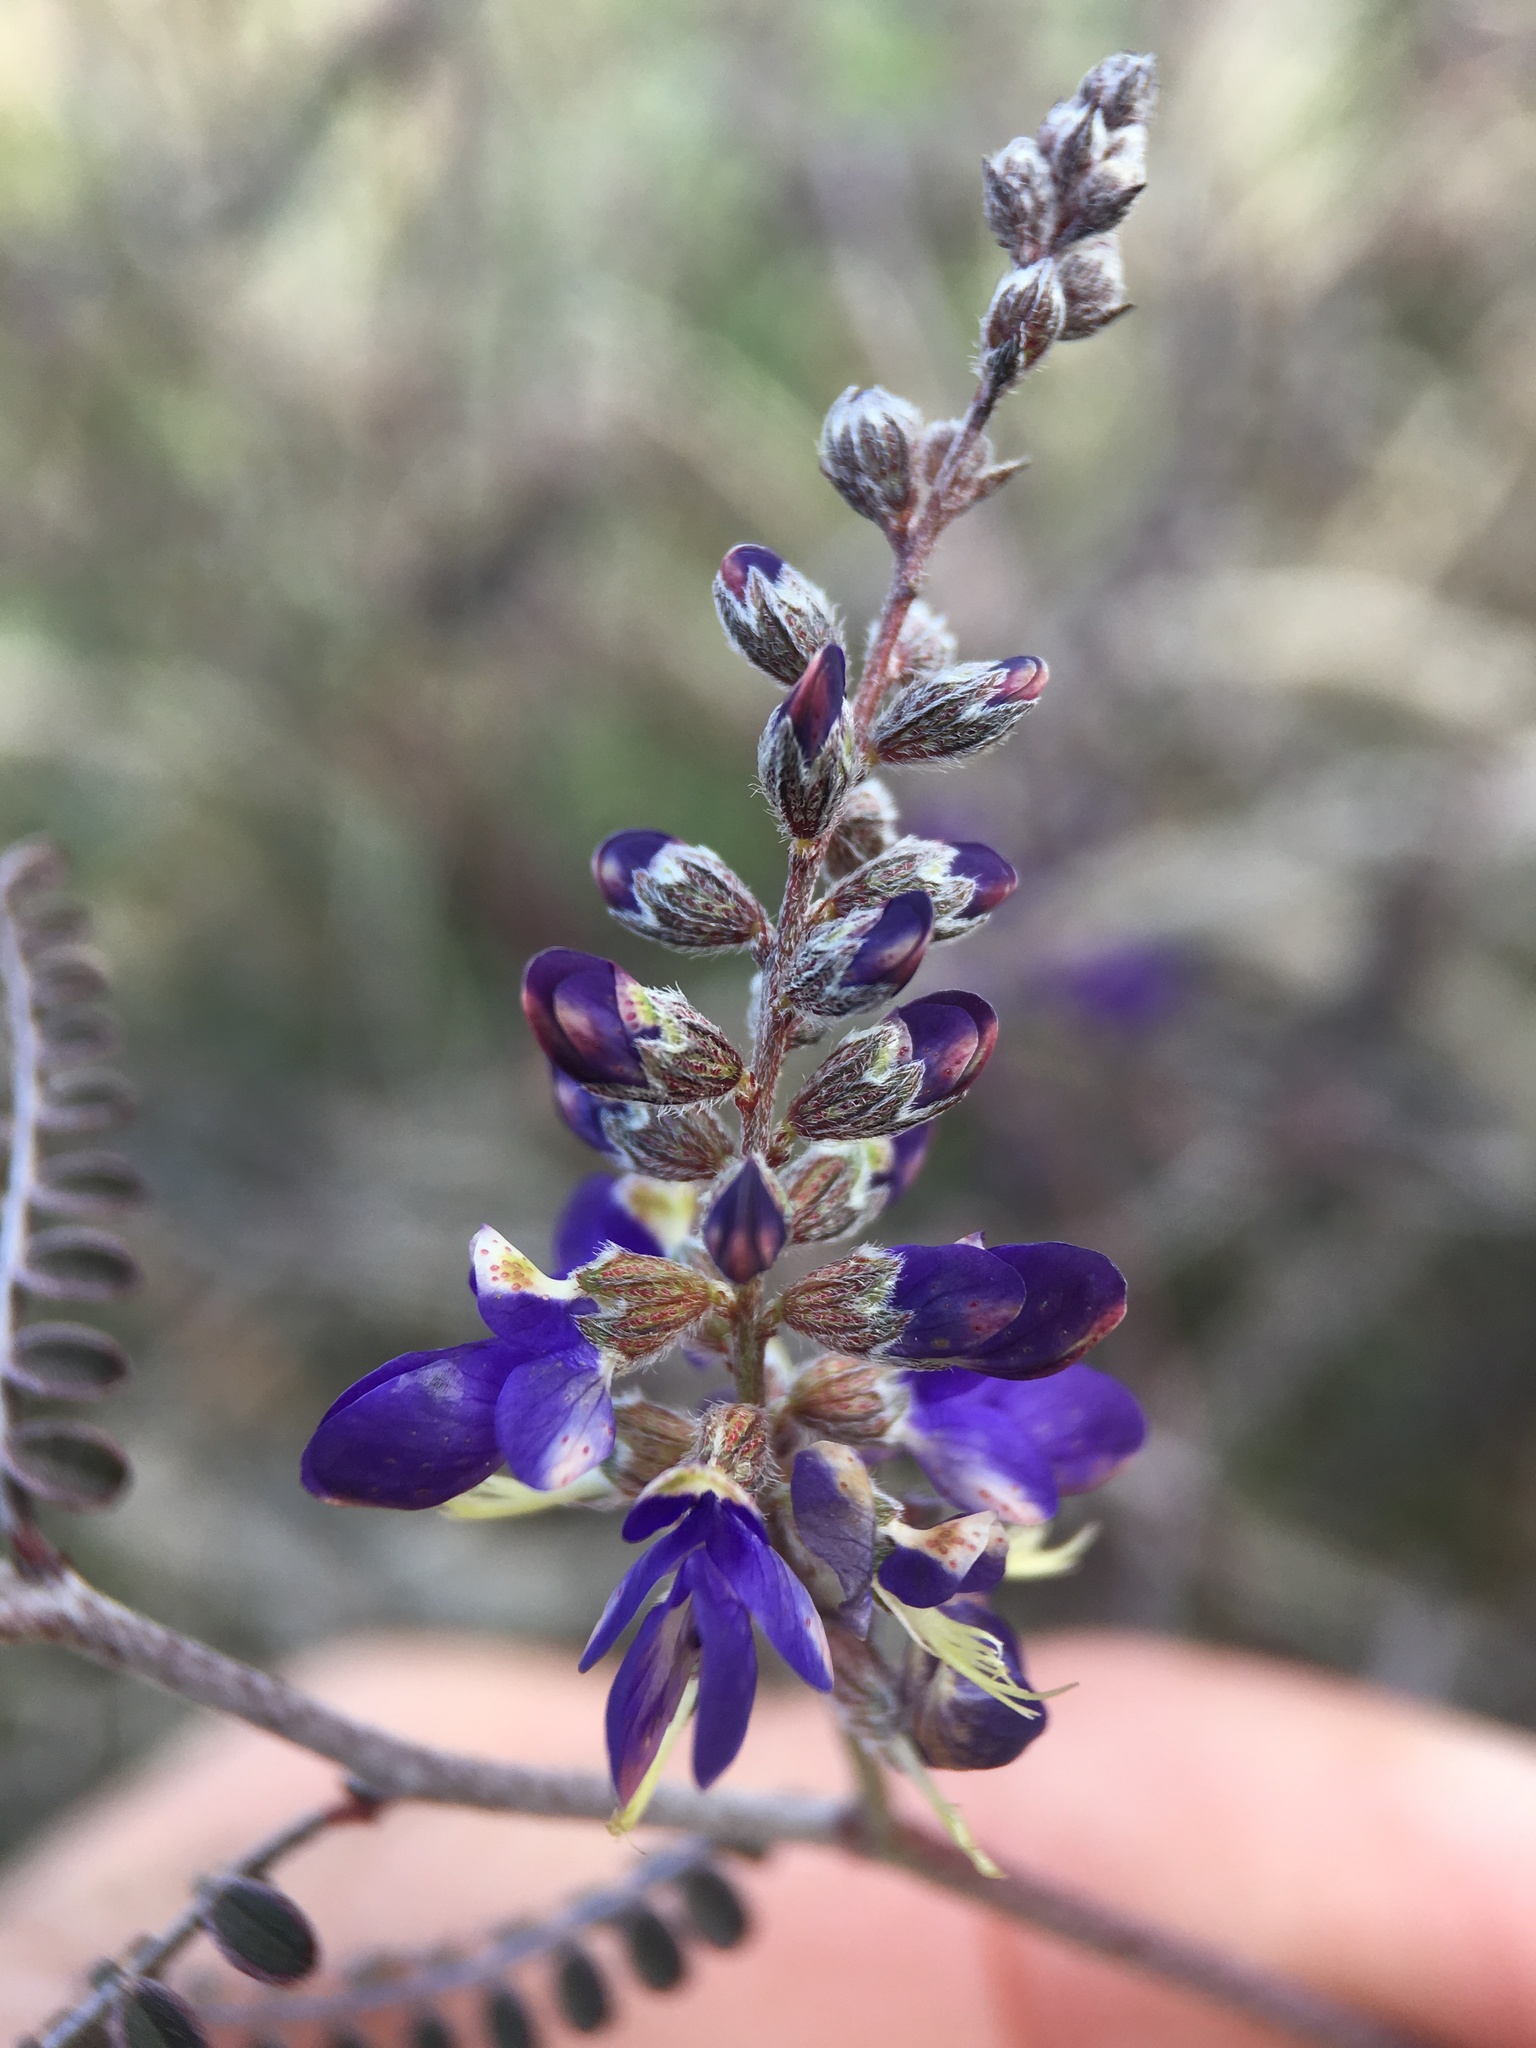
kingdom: Plantae
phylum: Tracheophyta
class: Magnoliopsida
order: Fabales
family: Fabaceae
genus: Marina
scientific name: Marina parryi
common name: Parry's marina
